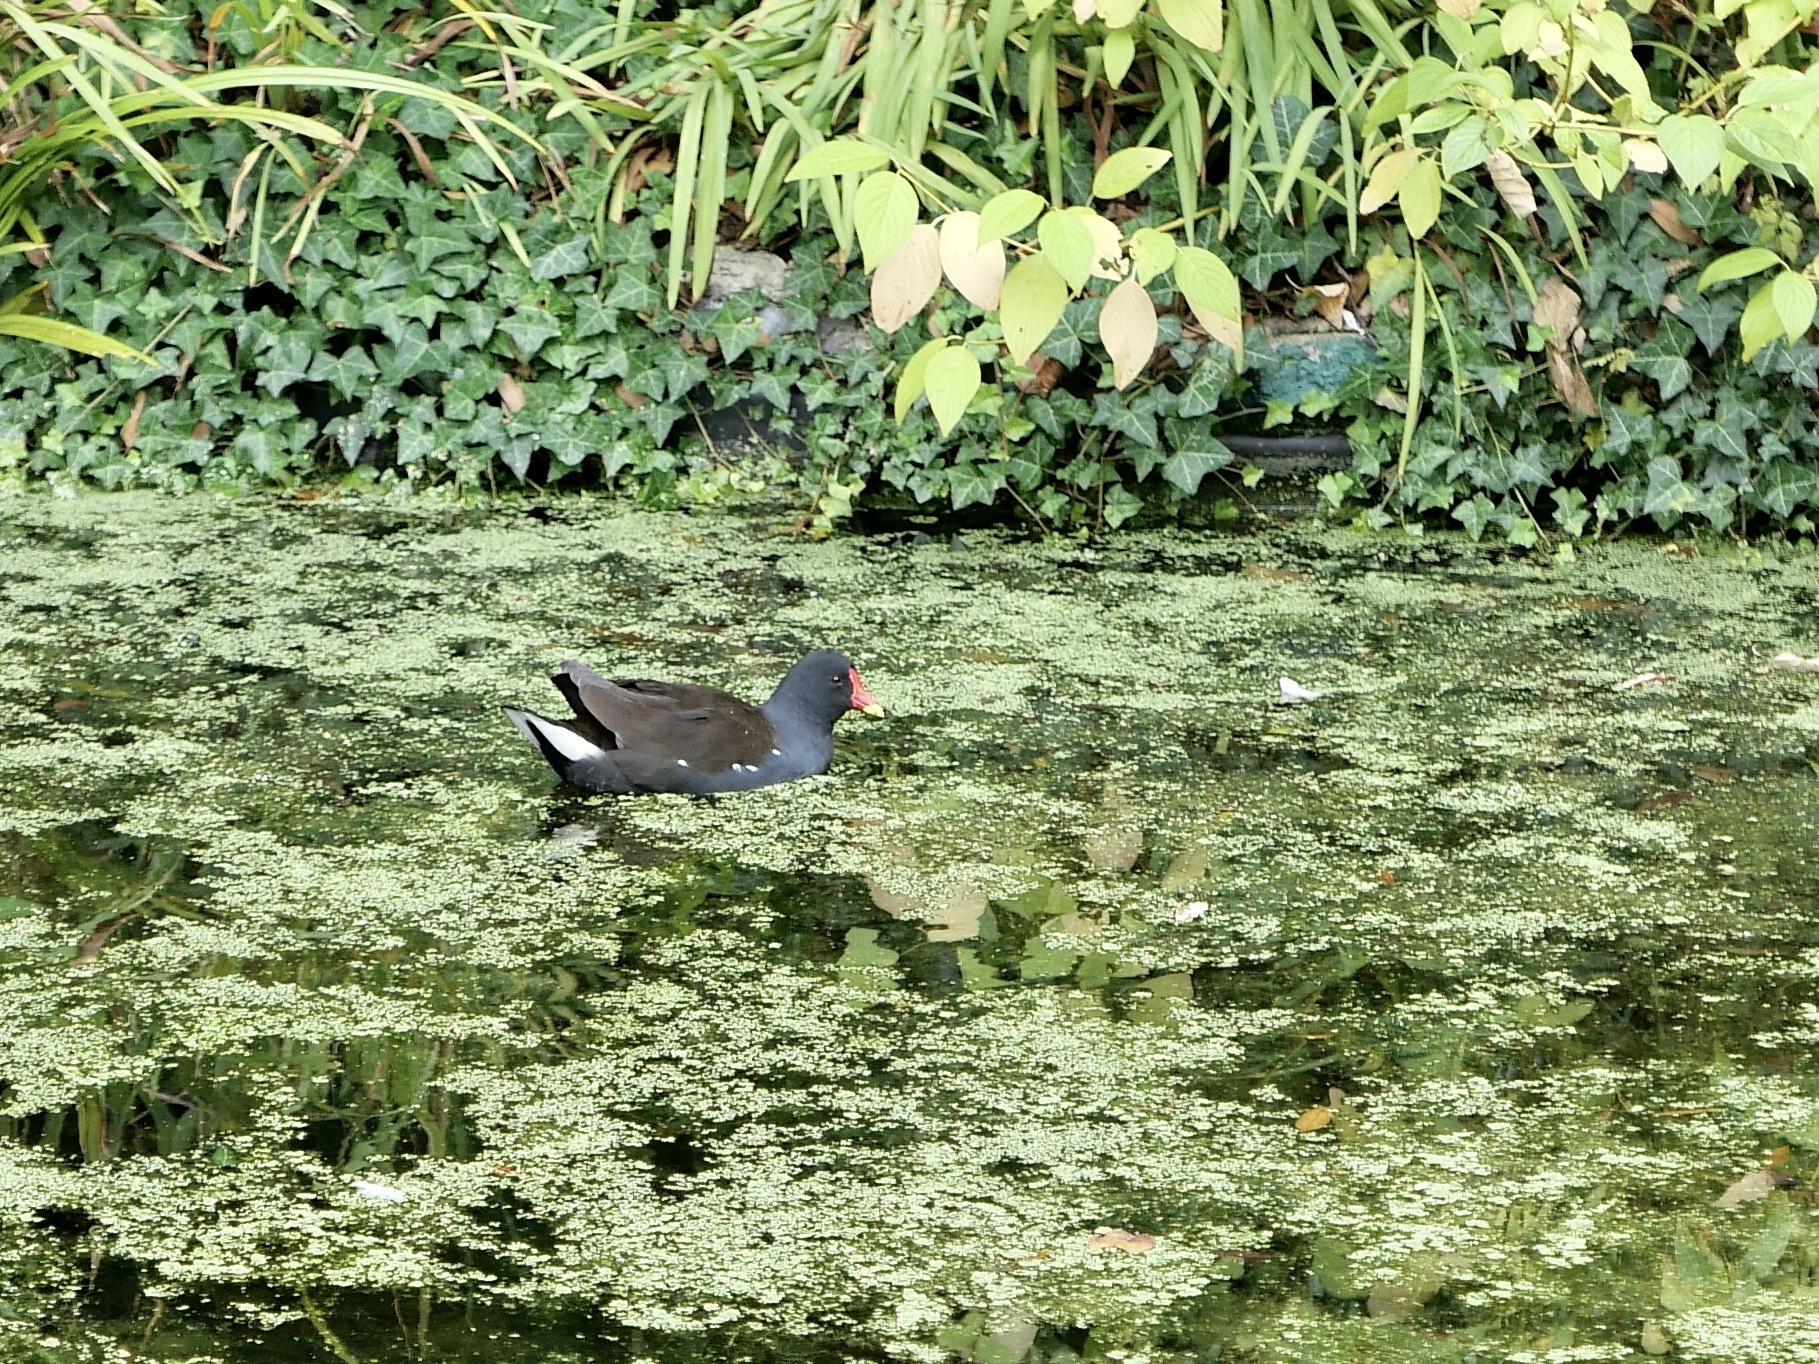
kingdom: Animalia
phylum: Chordata
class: Aves
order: Gruiformes
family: Rallidae
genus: Gallinula
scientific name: Gallinula chloropus
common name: Common moorhen
